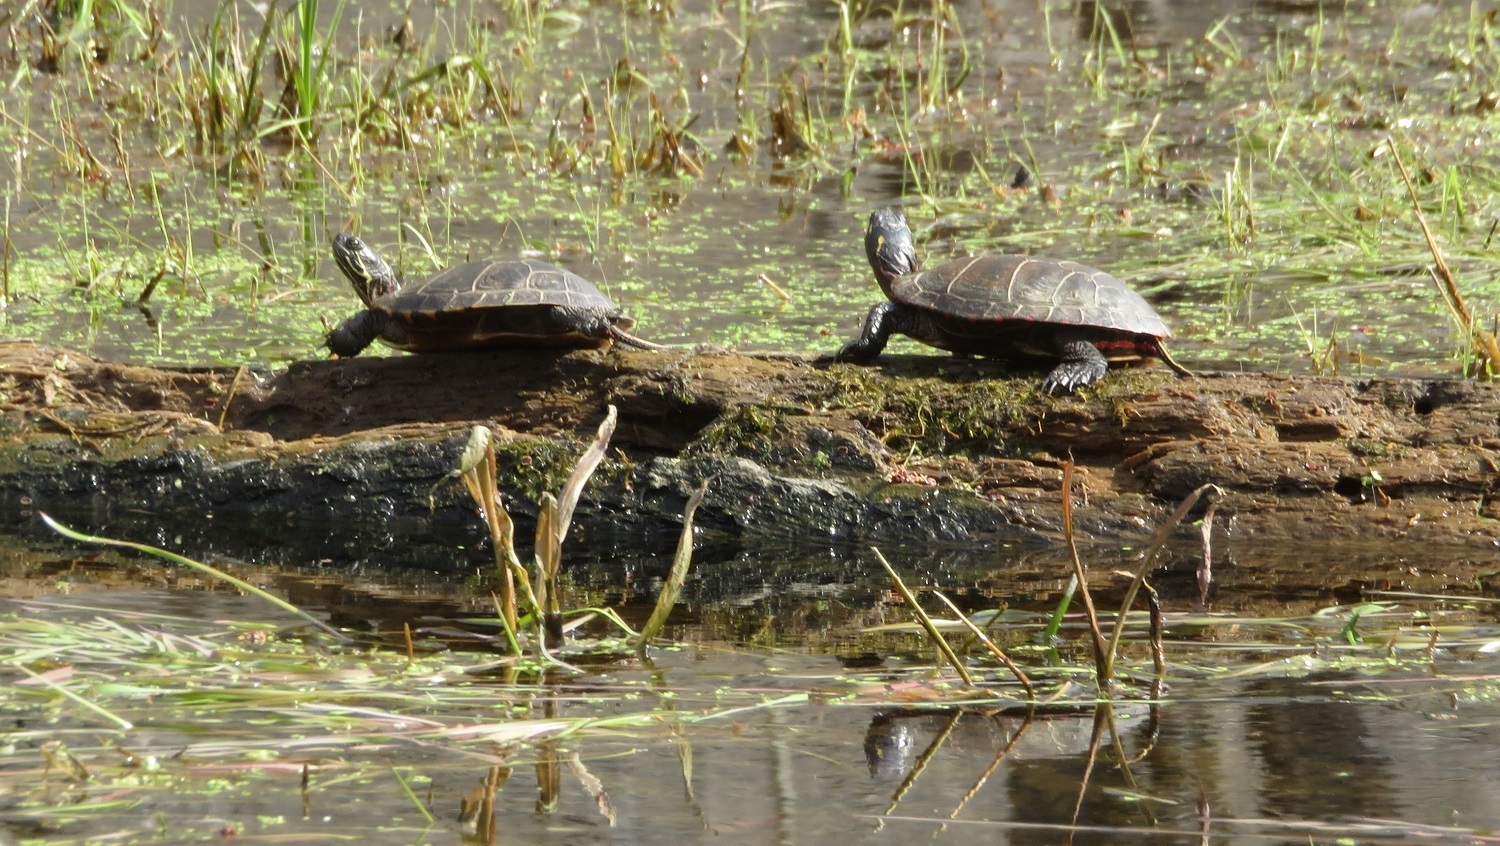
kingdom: Animalia
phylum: Chordata
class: Testudines
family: Emydidae
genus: Chrysemys
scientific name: Chrysemys picta
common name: Painted turtle
